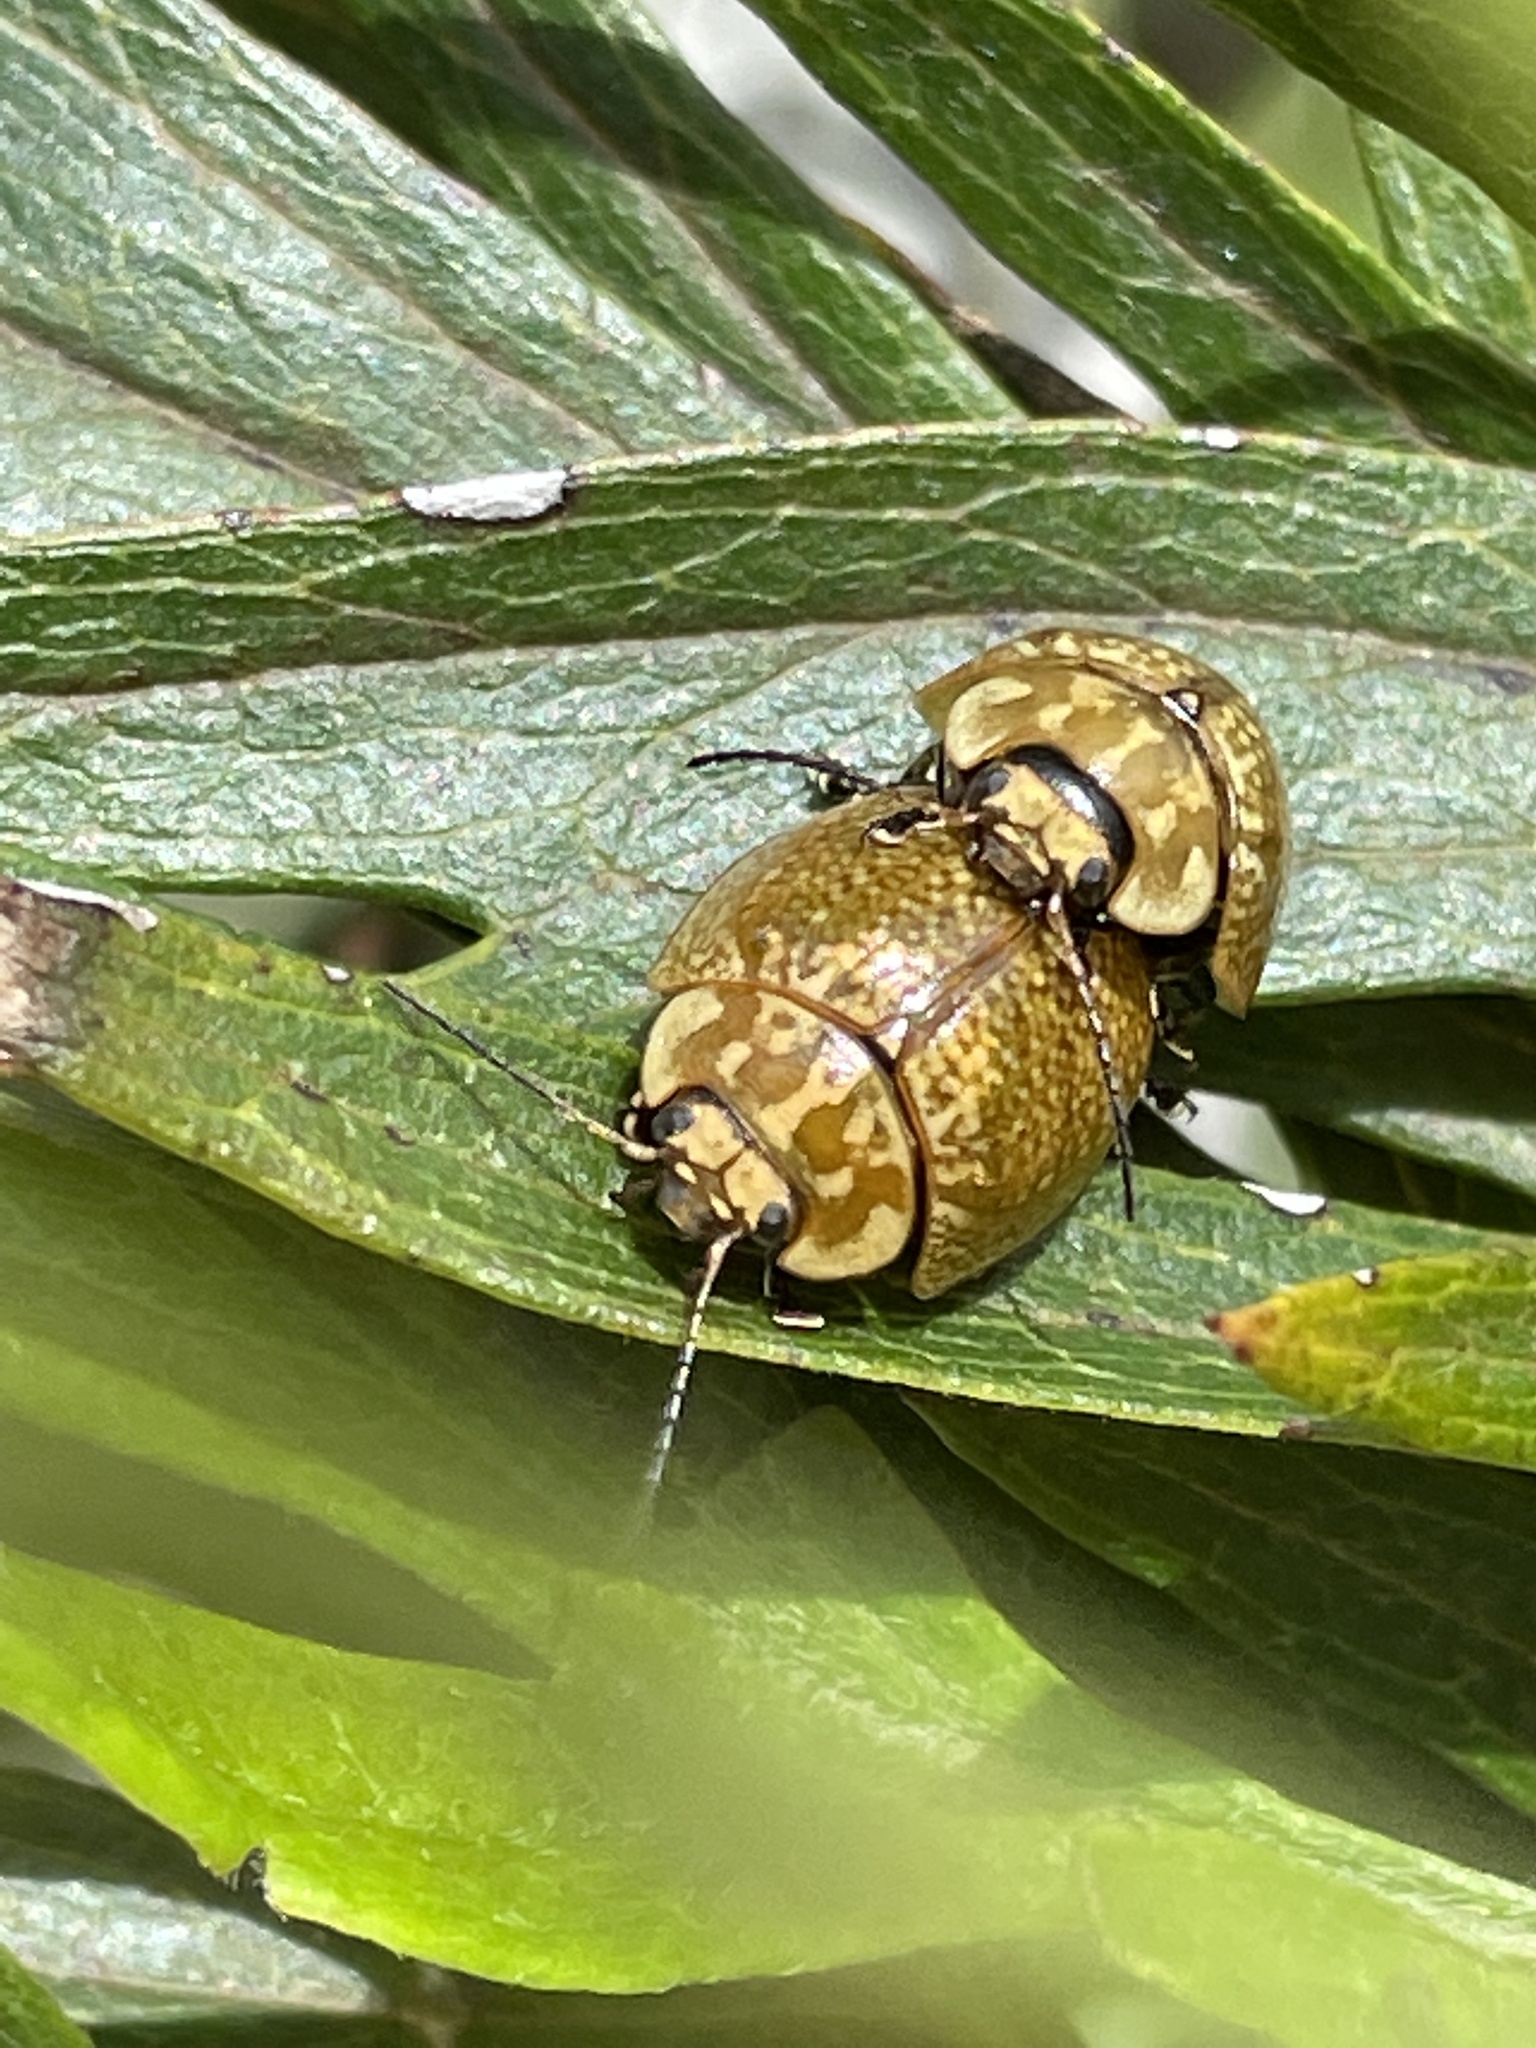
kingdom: Animalia
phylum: Arthropoda
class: Insecta
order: Coleoptera
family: Chrysomelidae
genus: Paropsisterna
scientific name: Paropsisterna cloelia
